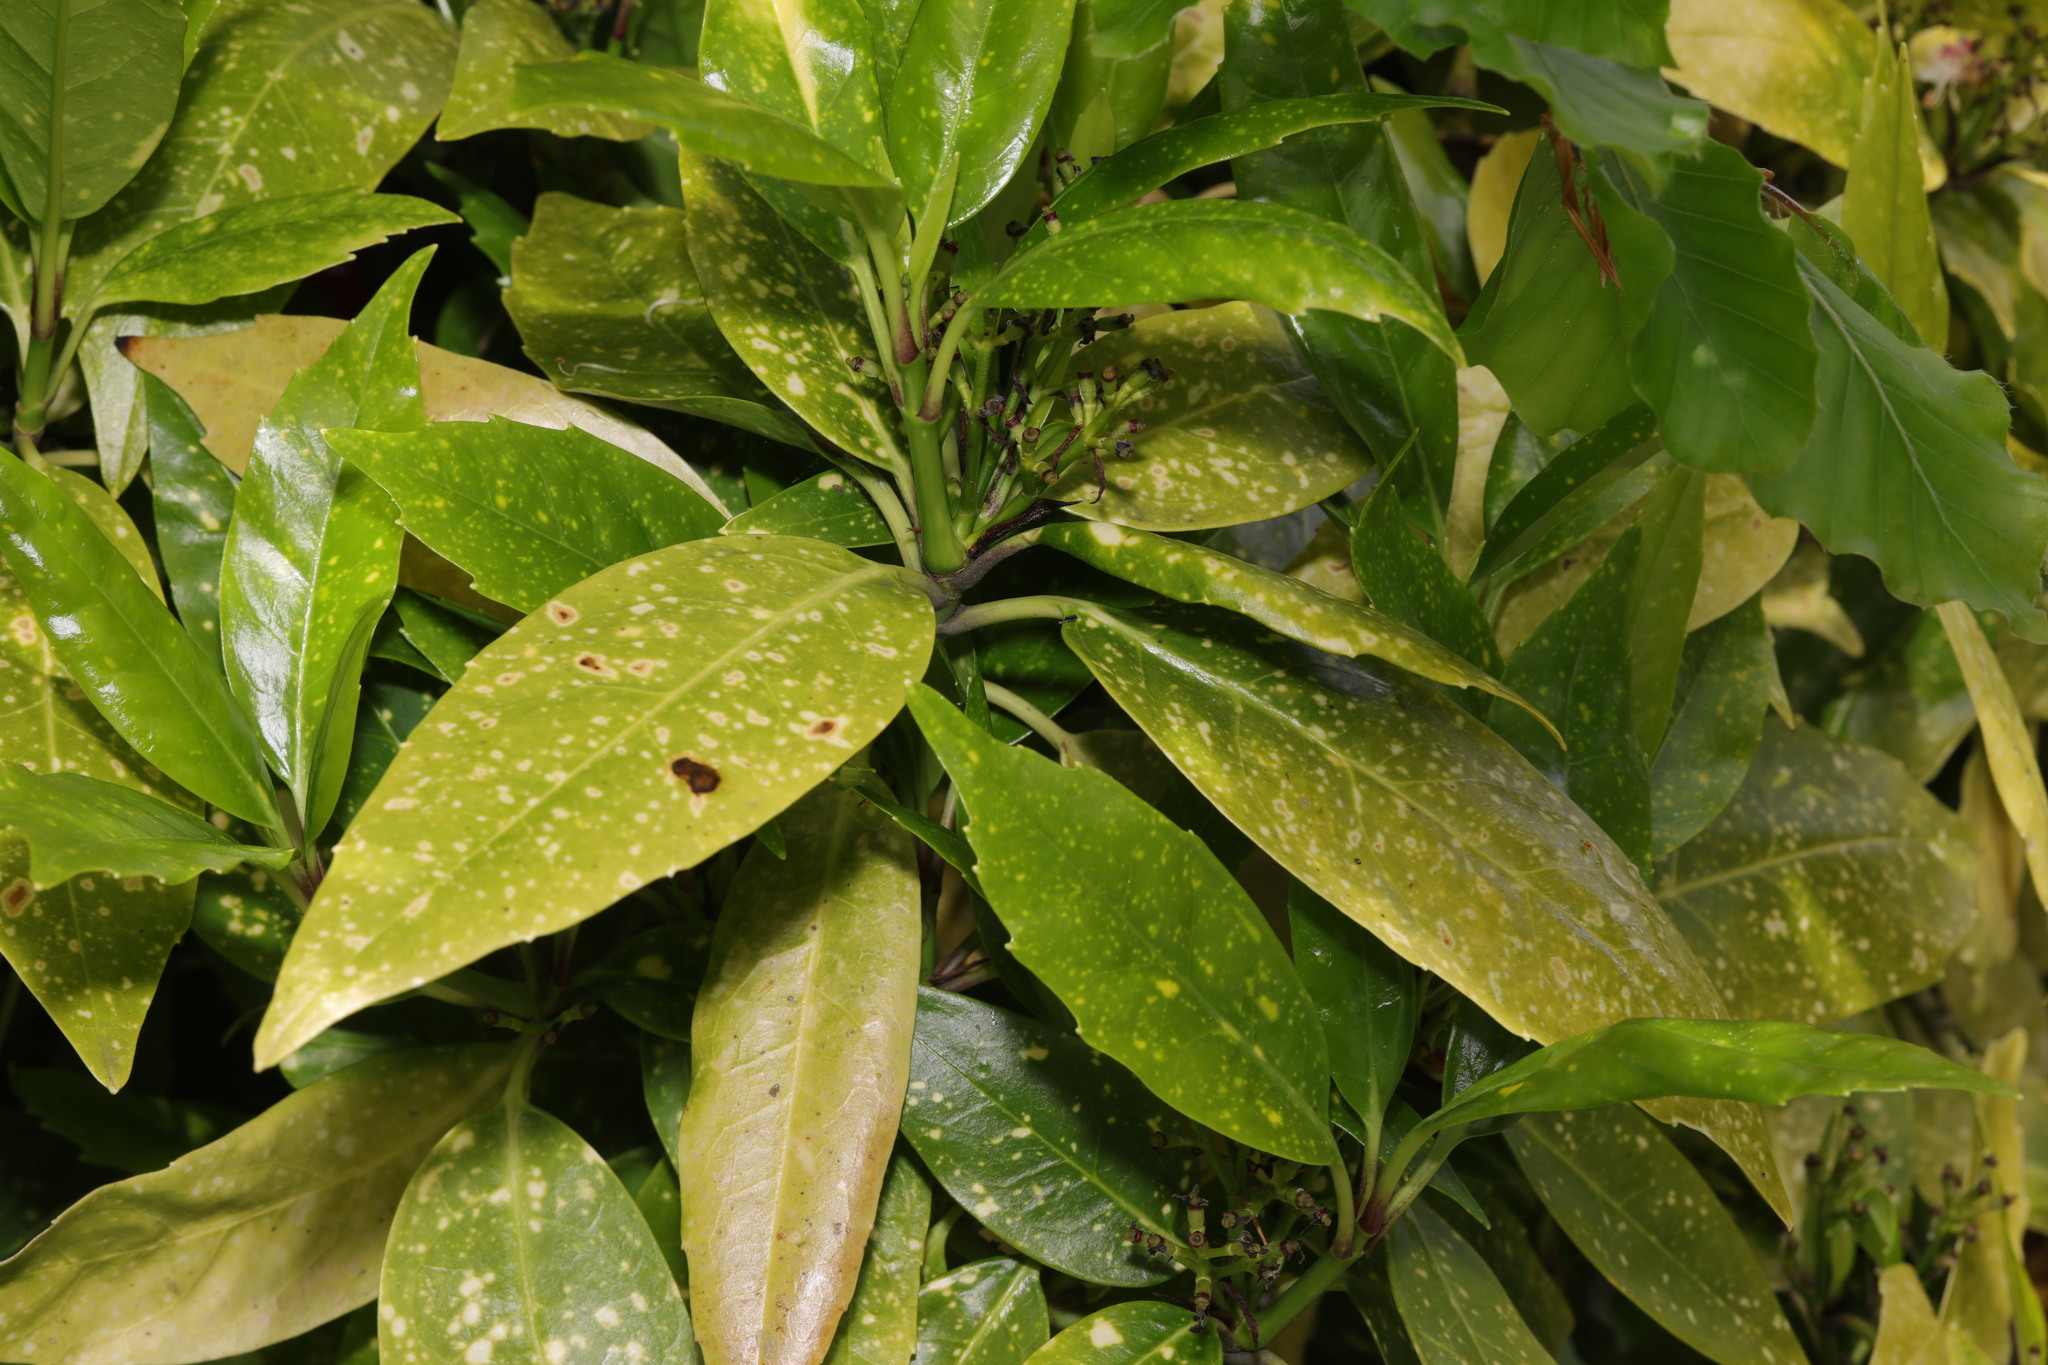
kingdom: Plantae
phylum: Tracheophyta
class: Magnoliopsida
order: Garryales
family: Garryaceae
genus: Aucuba
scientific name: Aucuba japonica
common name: Spotted-laurel
